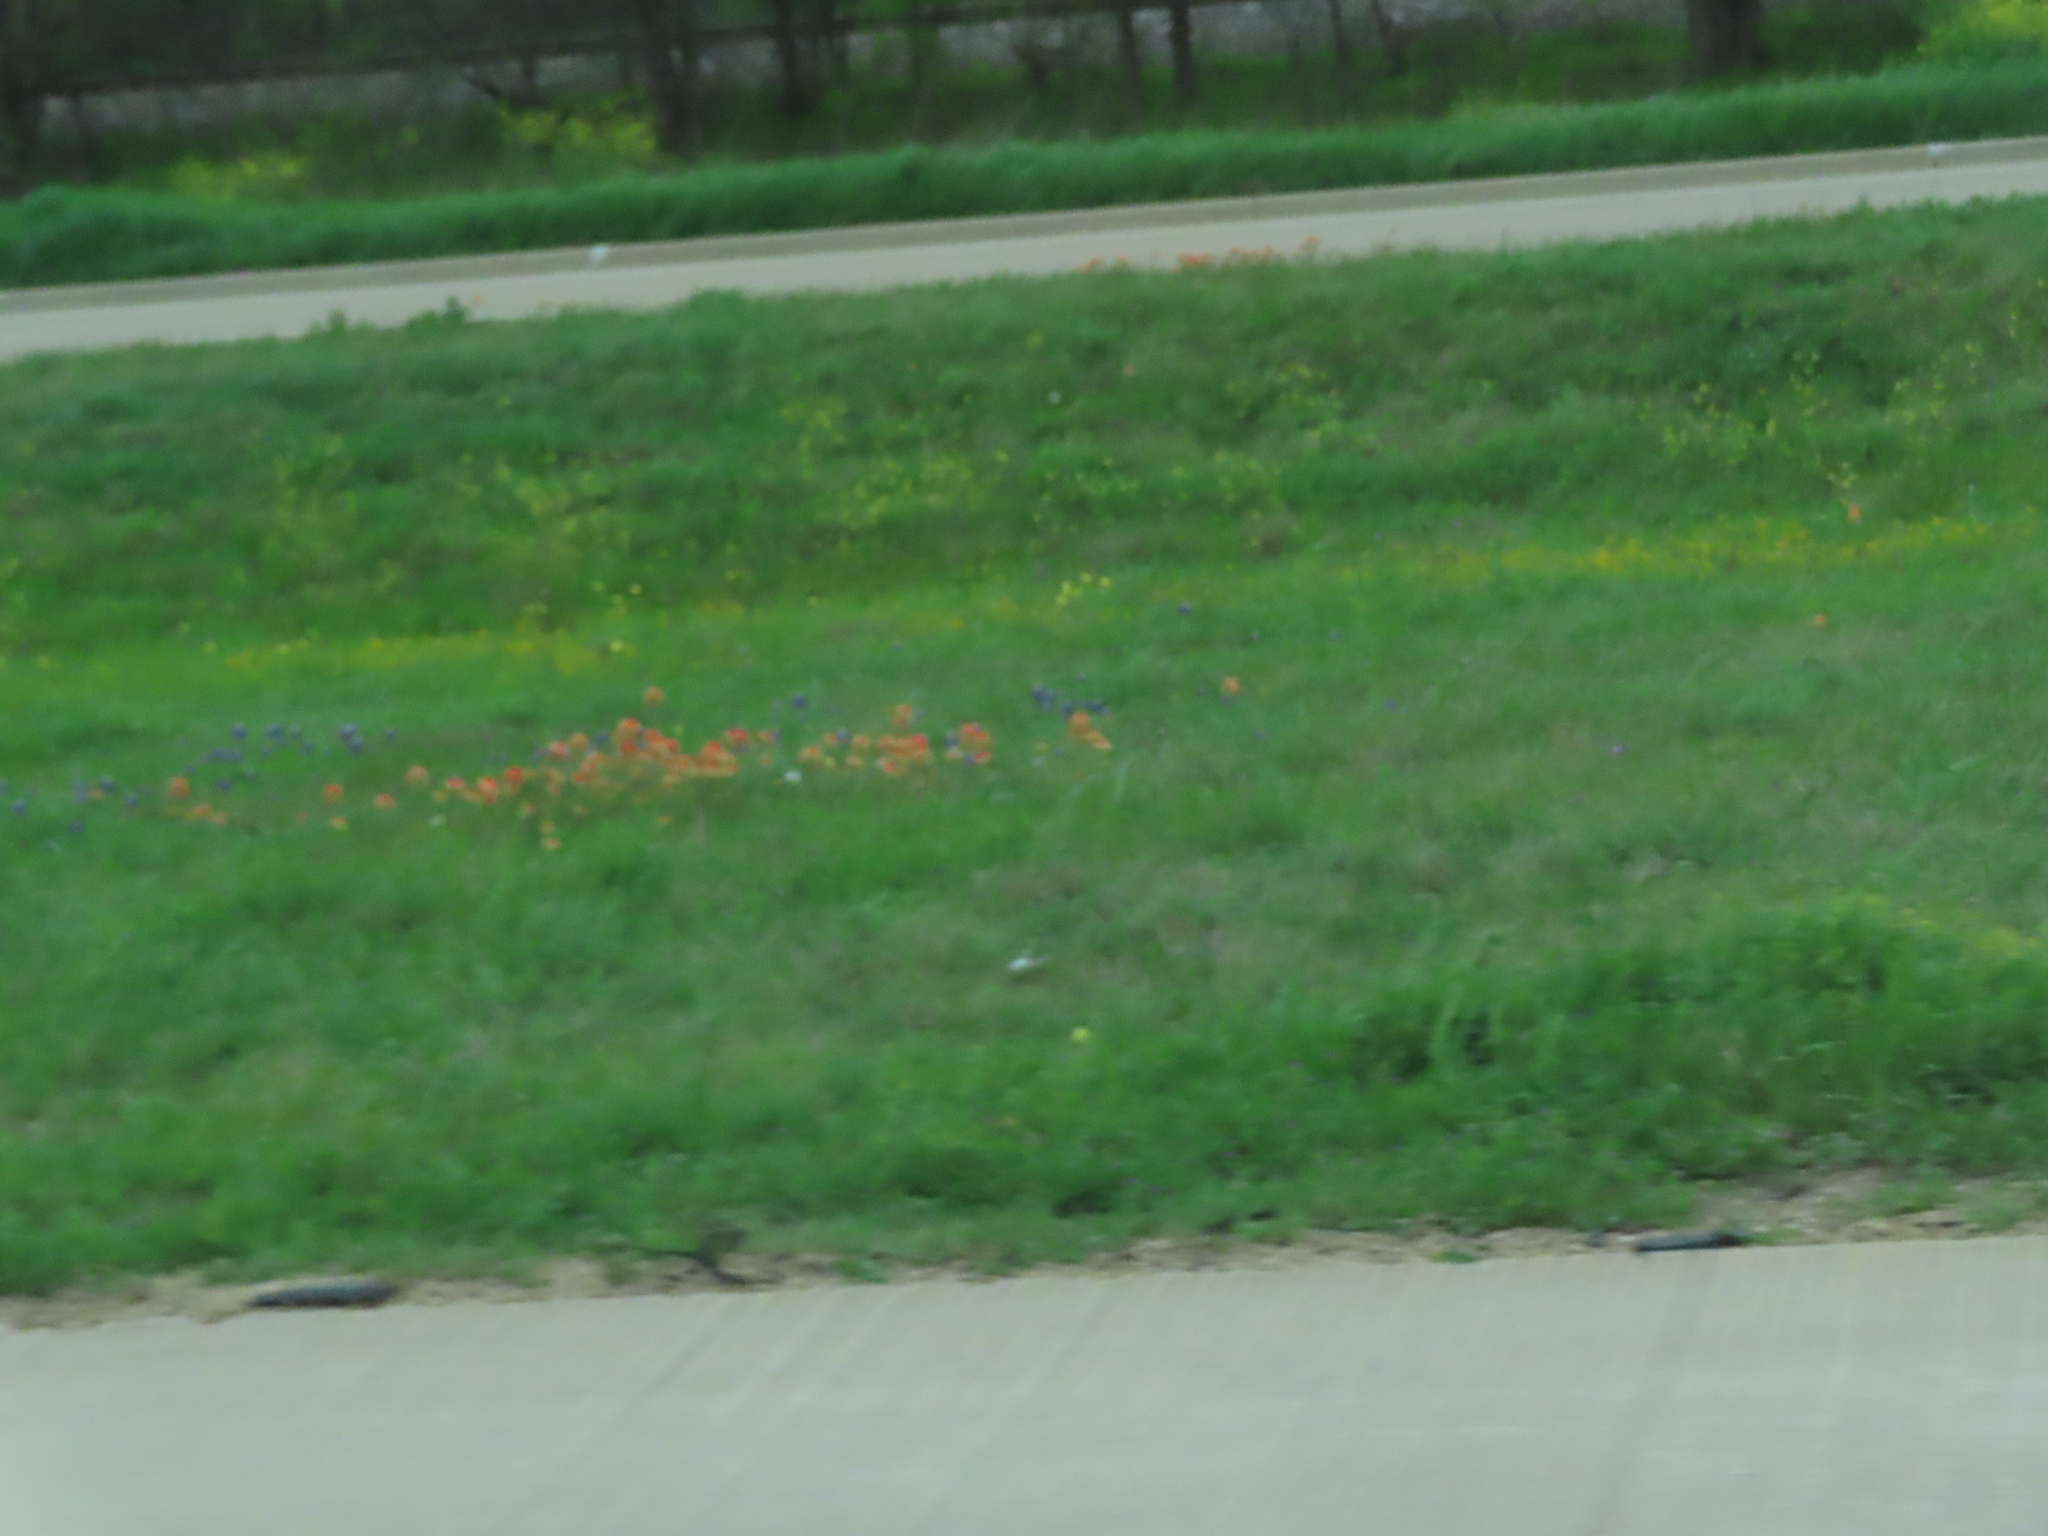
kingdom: Plantae
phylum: Tracheophyta
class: Magnoliopsida
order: Lamiales
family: Orobanchaceae
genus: Castilleja
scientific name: Castilleja indivisa
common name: Texas paintbrush
